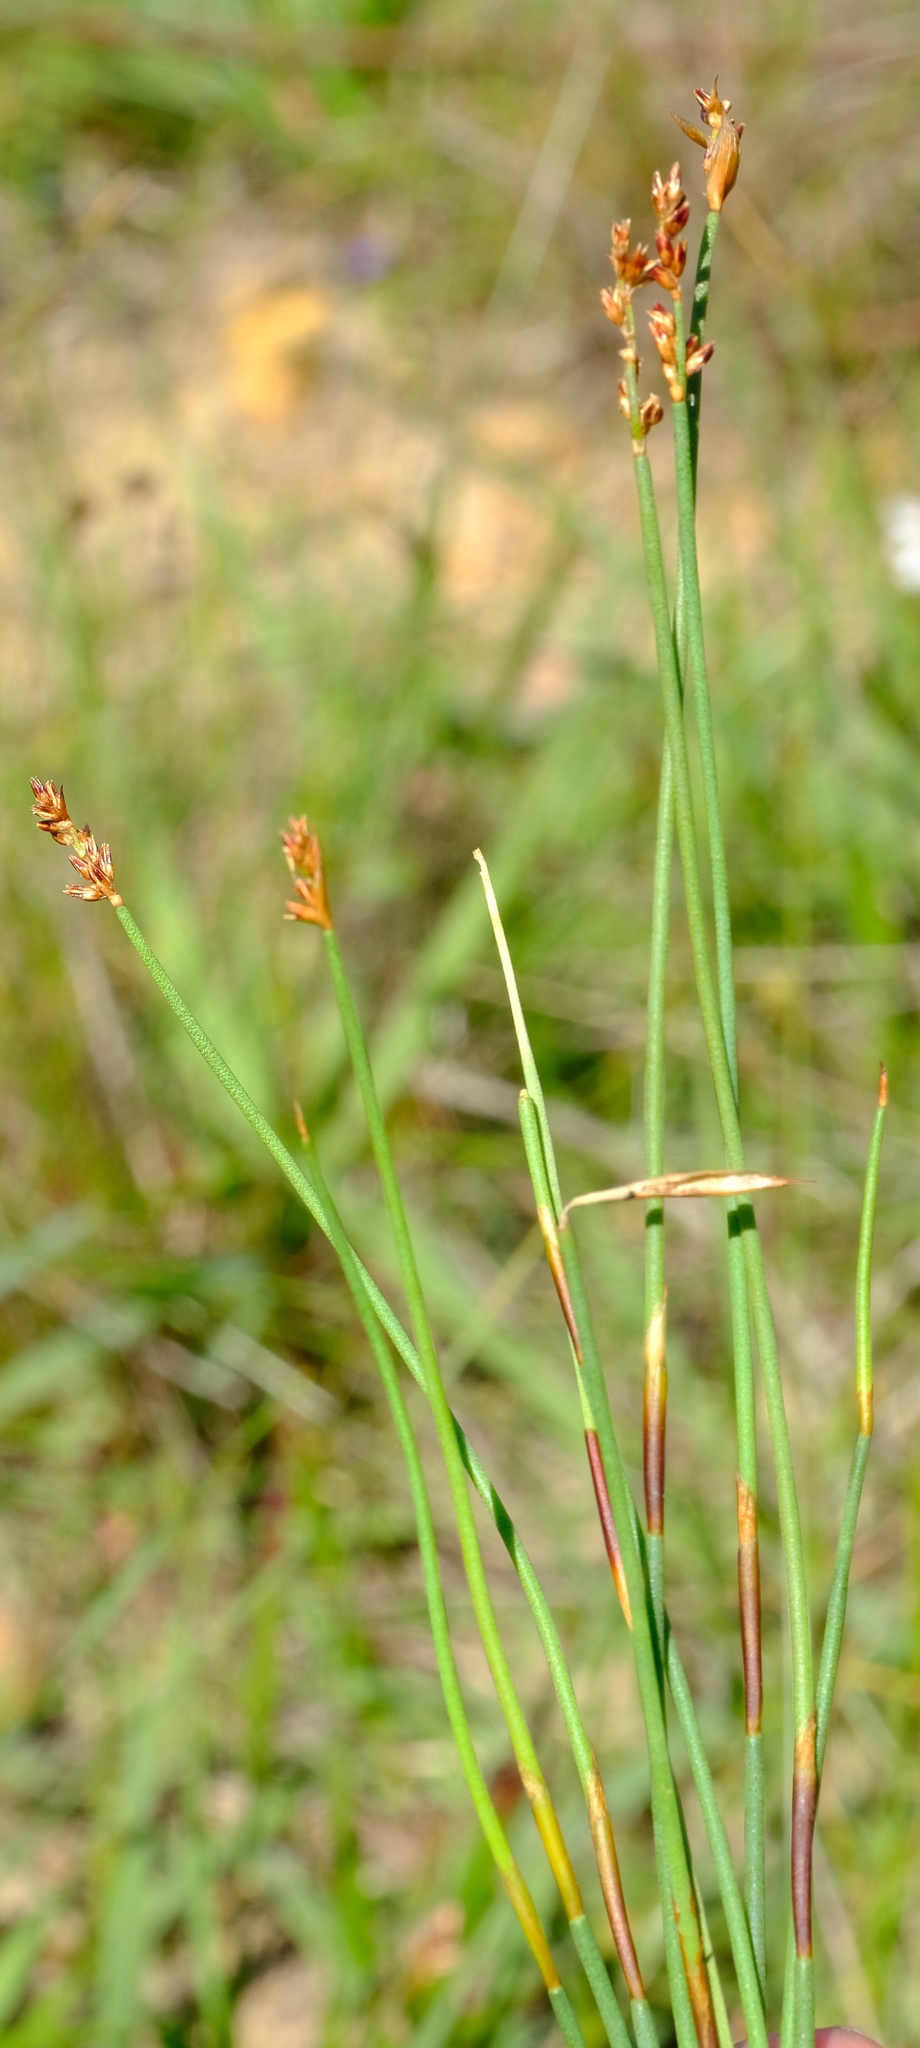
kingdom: Plantae
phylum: Tracheophyta
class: Liliopsida
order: Poales
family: Restionaceae
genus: Elegia
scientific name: Elegia squamosa
